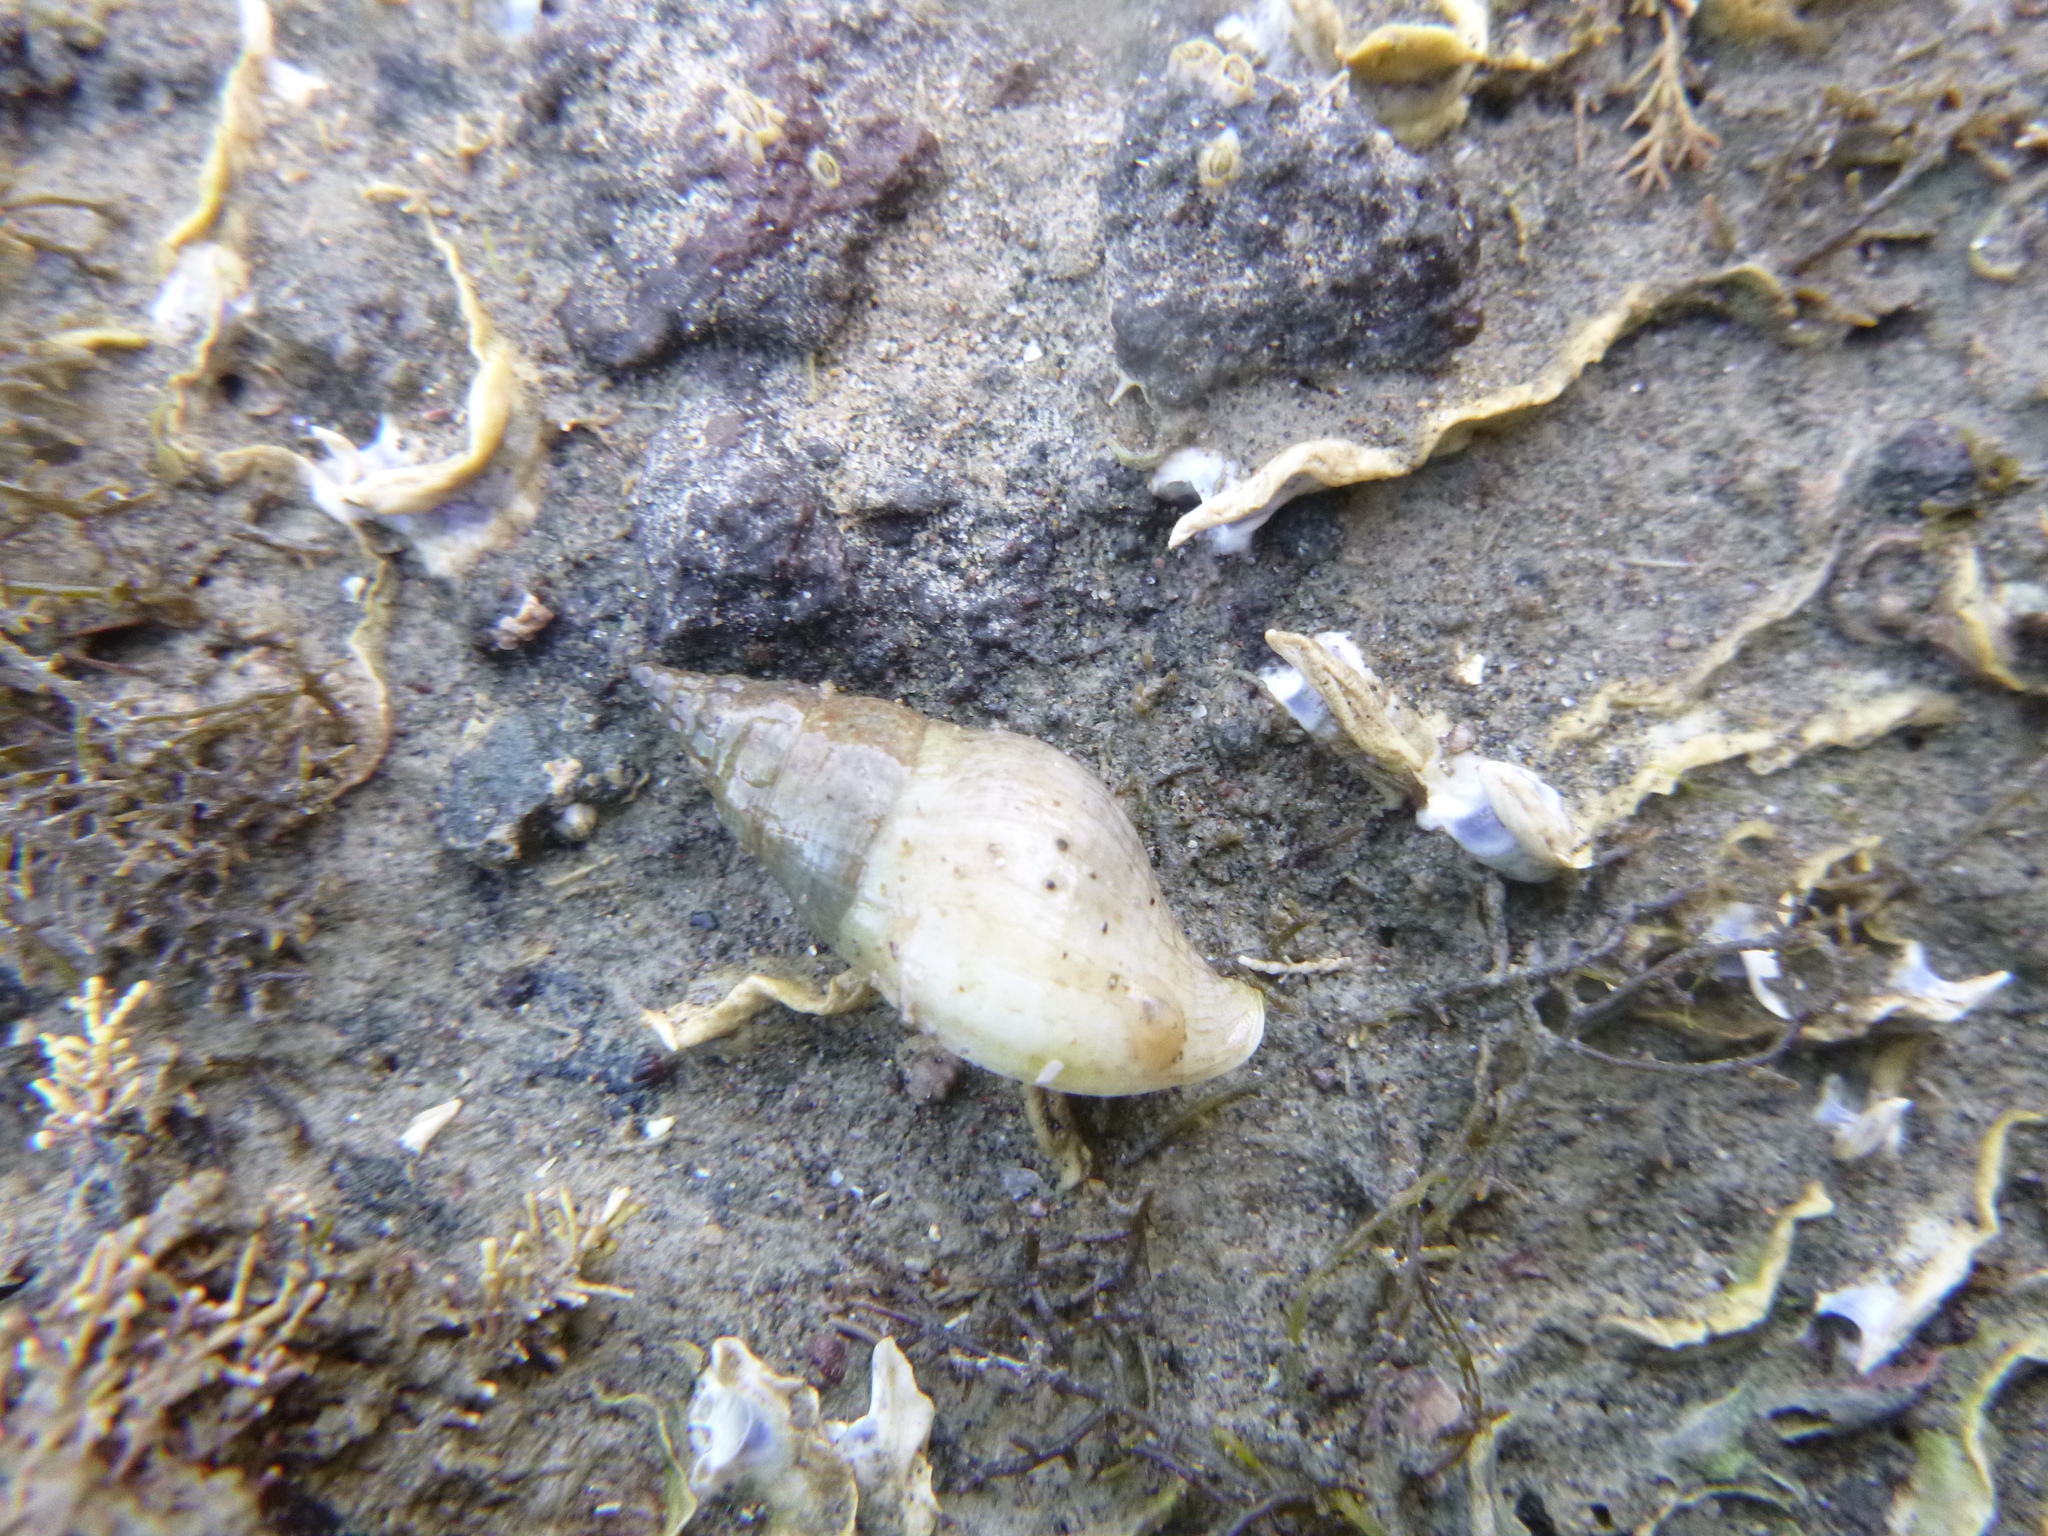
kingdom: Animalia
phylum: Mollusca
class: Gastropoda
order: Neogastropoda
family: Tudiclidae
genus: Buccinulum
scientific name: Buccinulum vittatum
